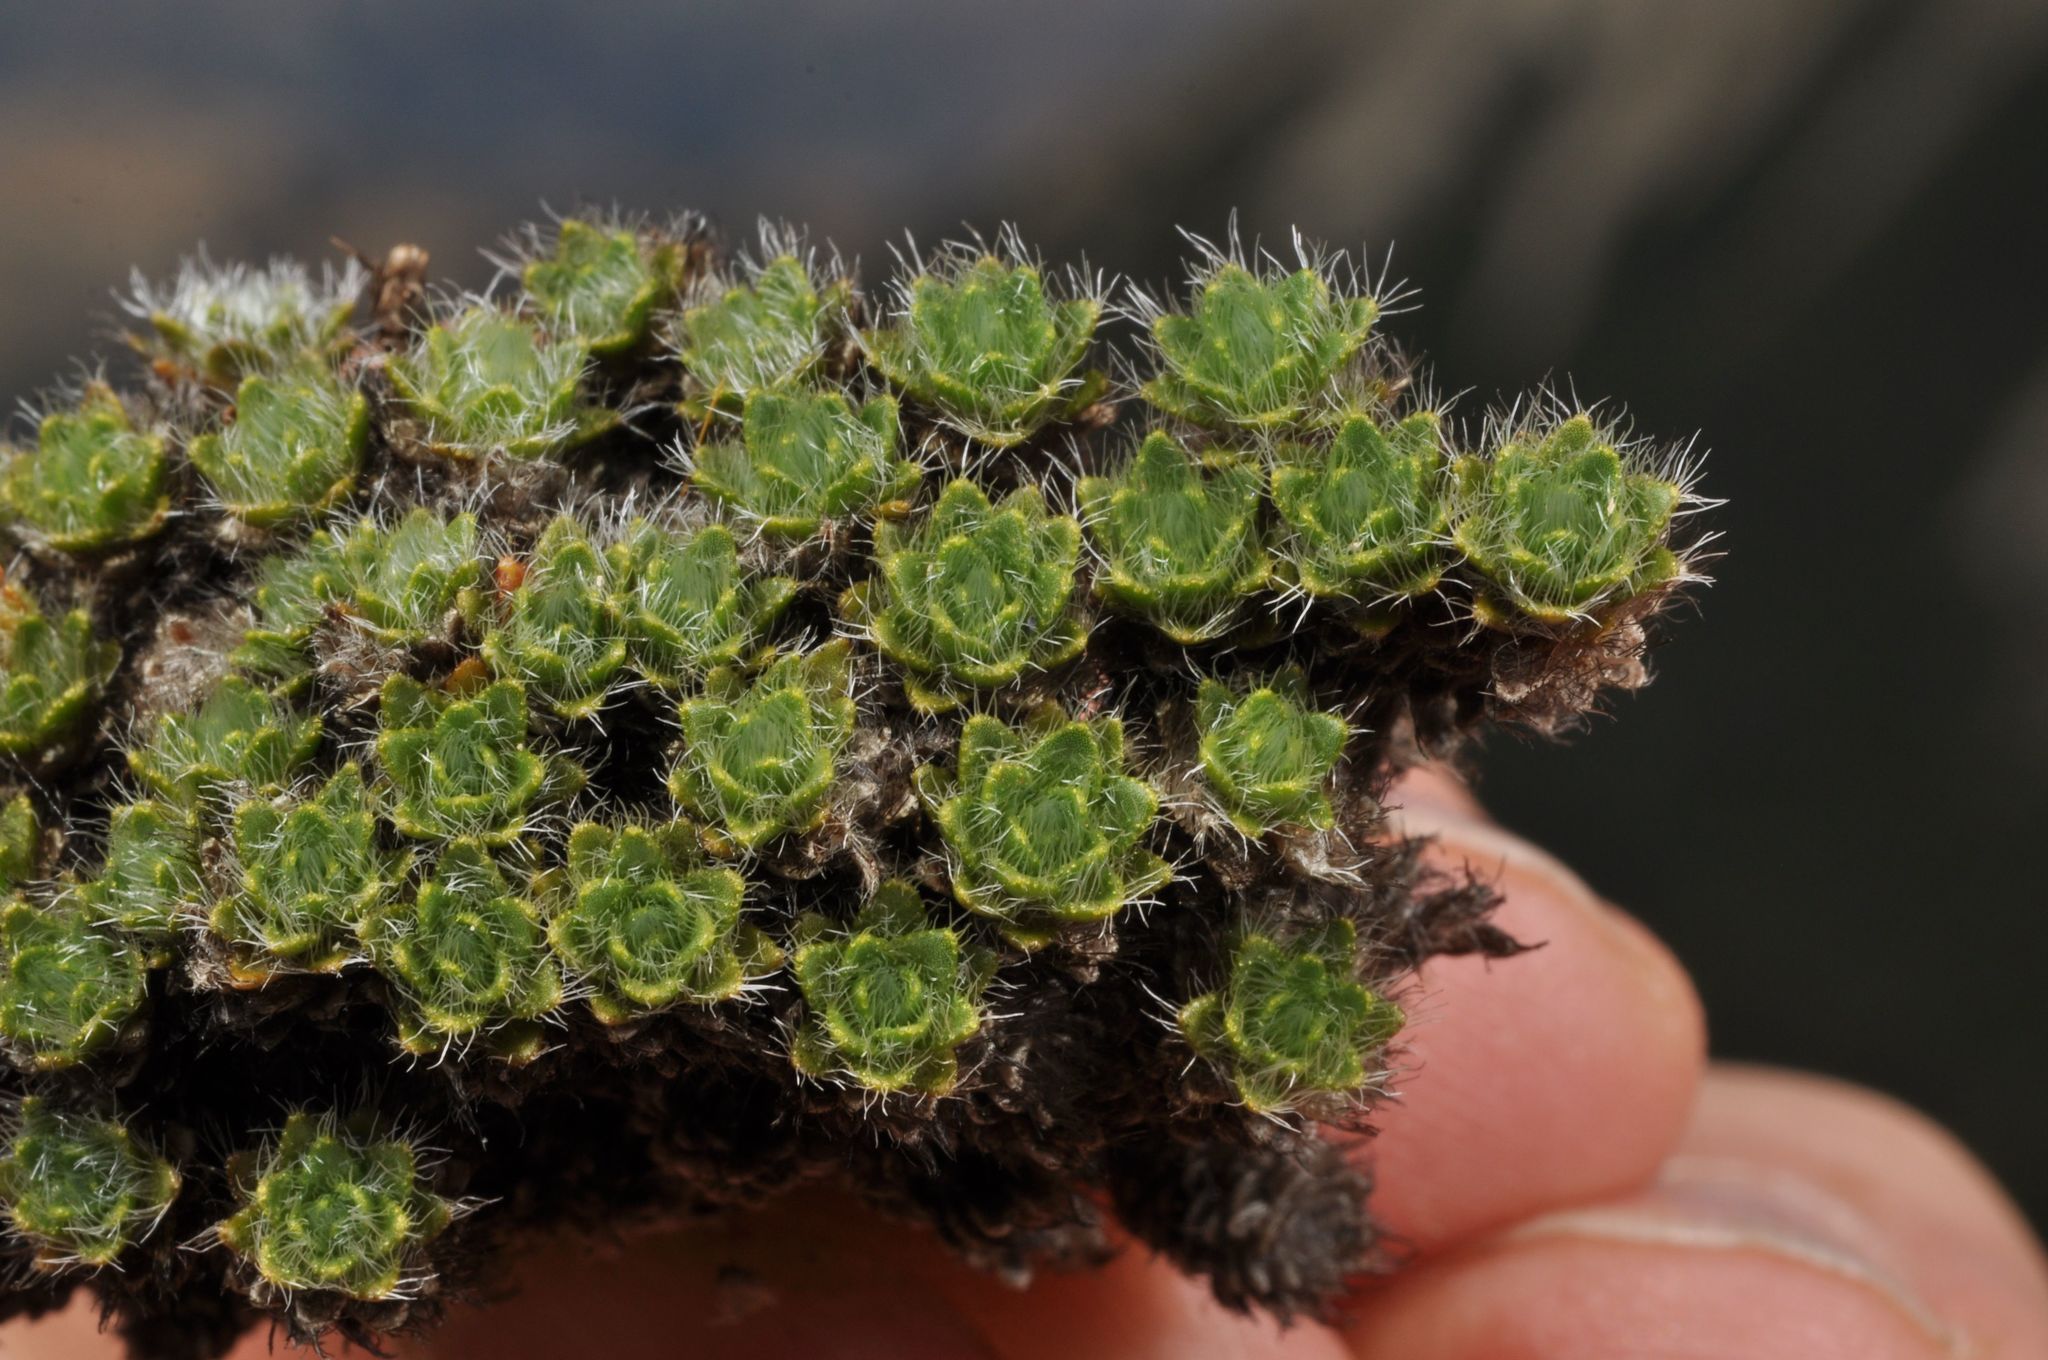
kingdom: Plantae
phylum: Tracheophyta
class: Magnoliopsida
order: Lamiales
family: Plantaginaceae
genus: Veronica
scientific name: Veronica pulvinaris
